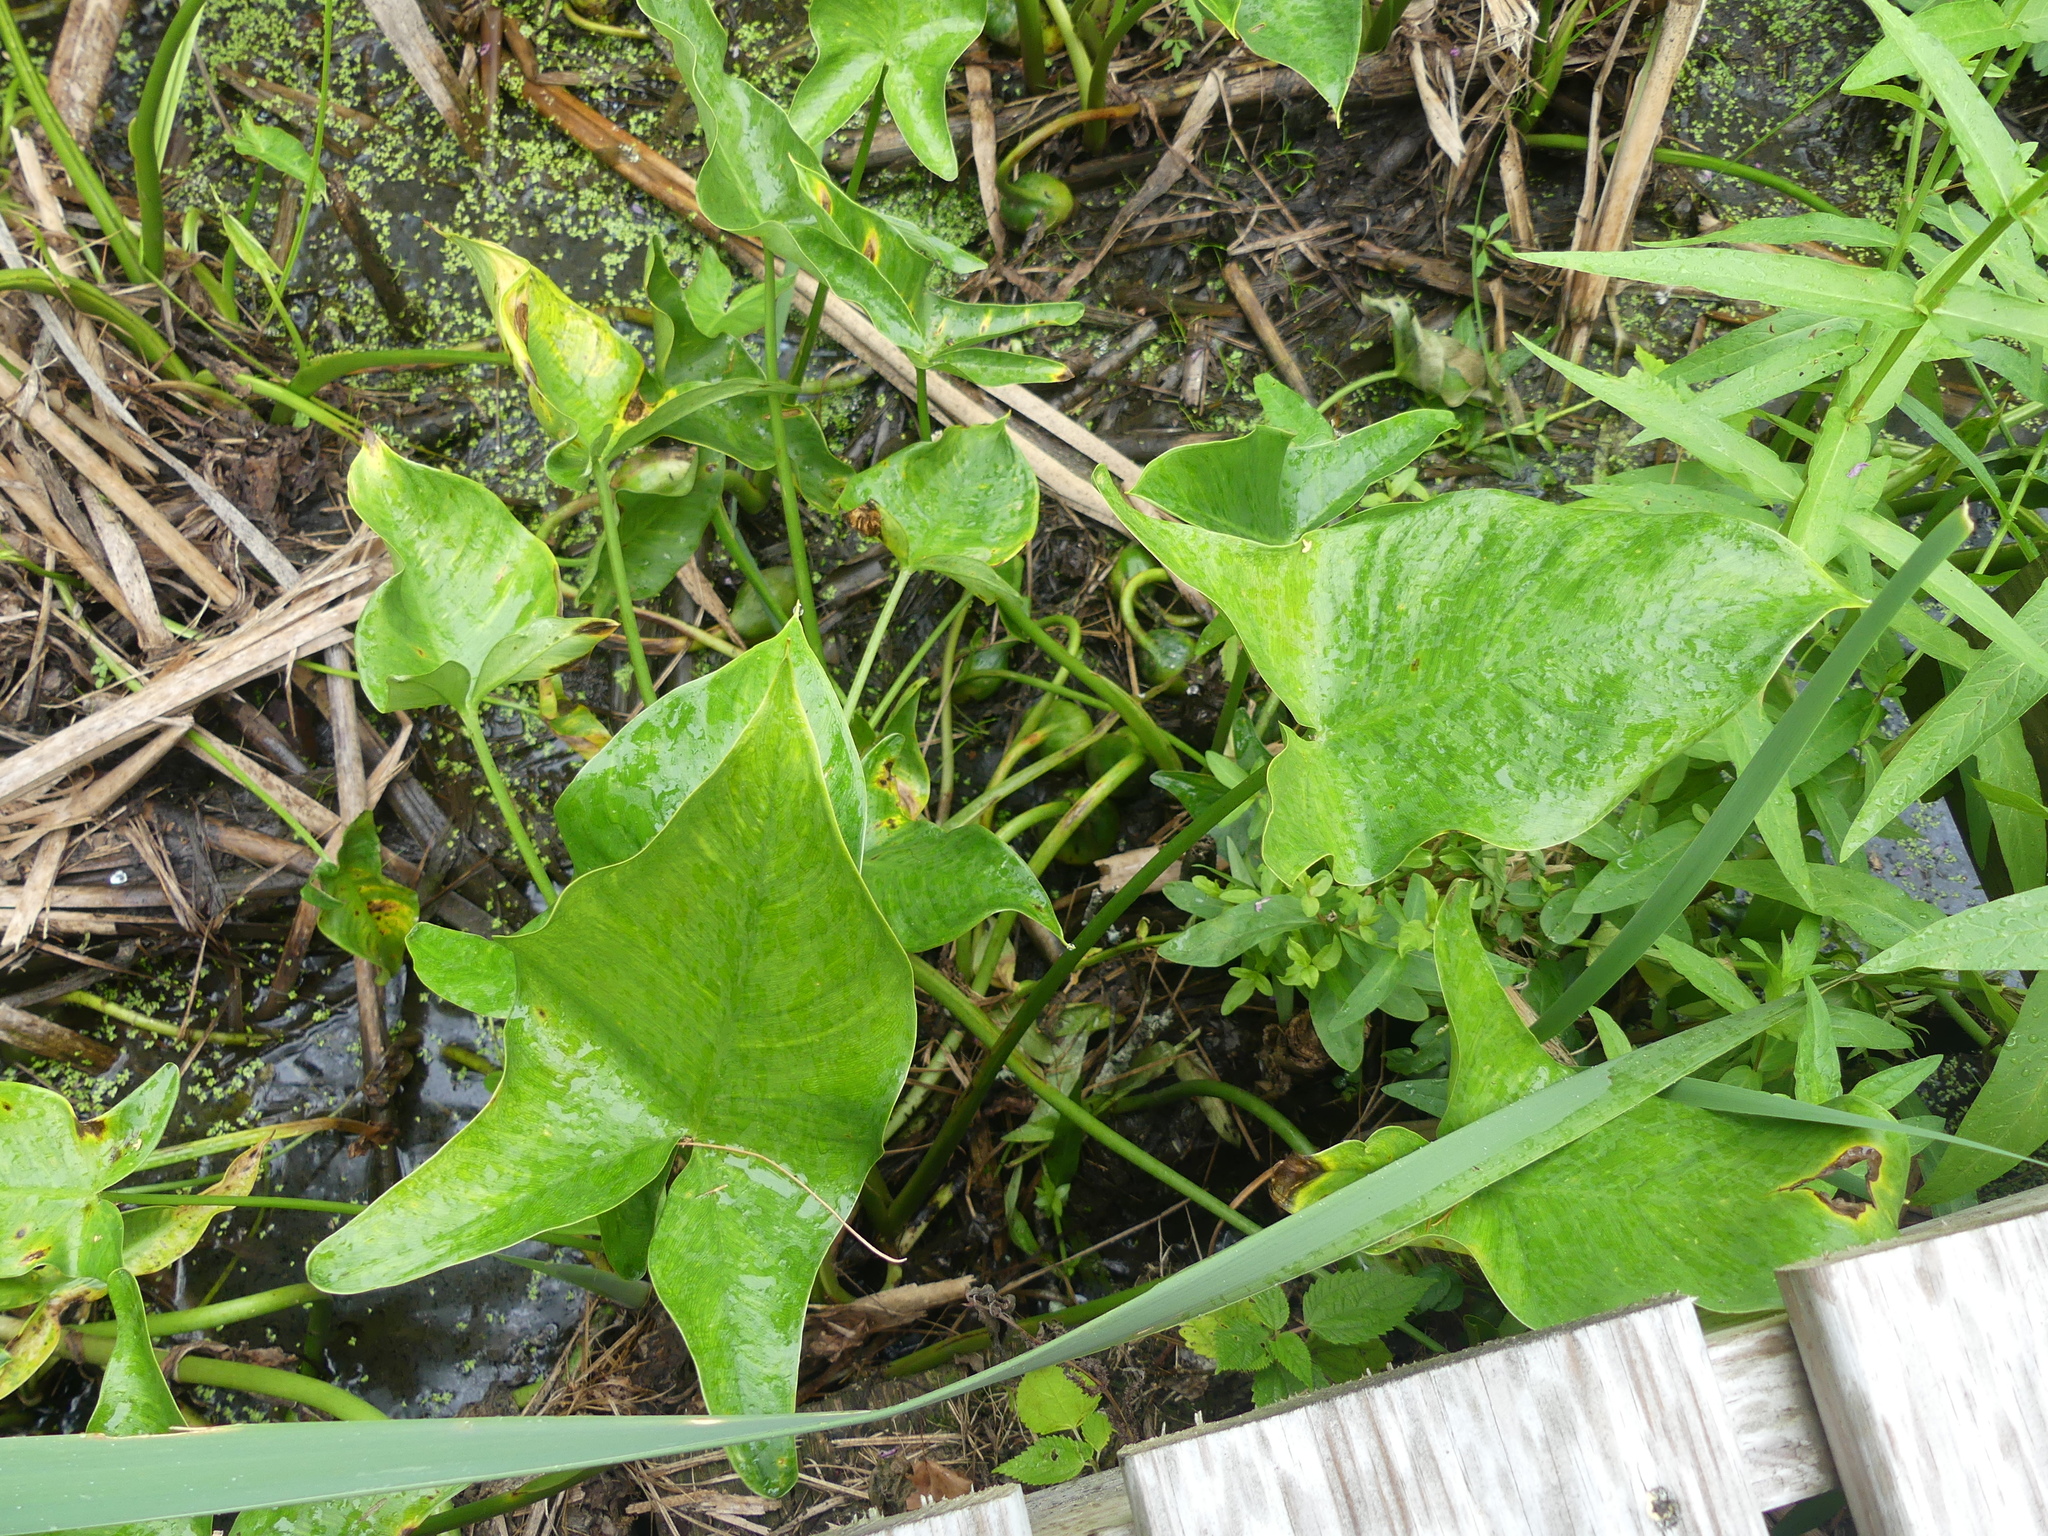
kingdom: Plantae
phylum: Tracheophyta
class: Liliopsida
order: Alismatales
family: Araceae
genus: Peltandra
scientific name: Peltandra virginica
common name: Arrow arum
